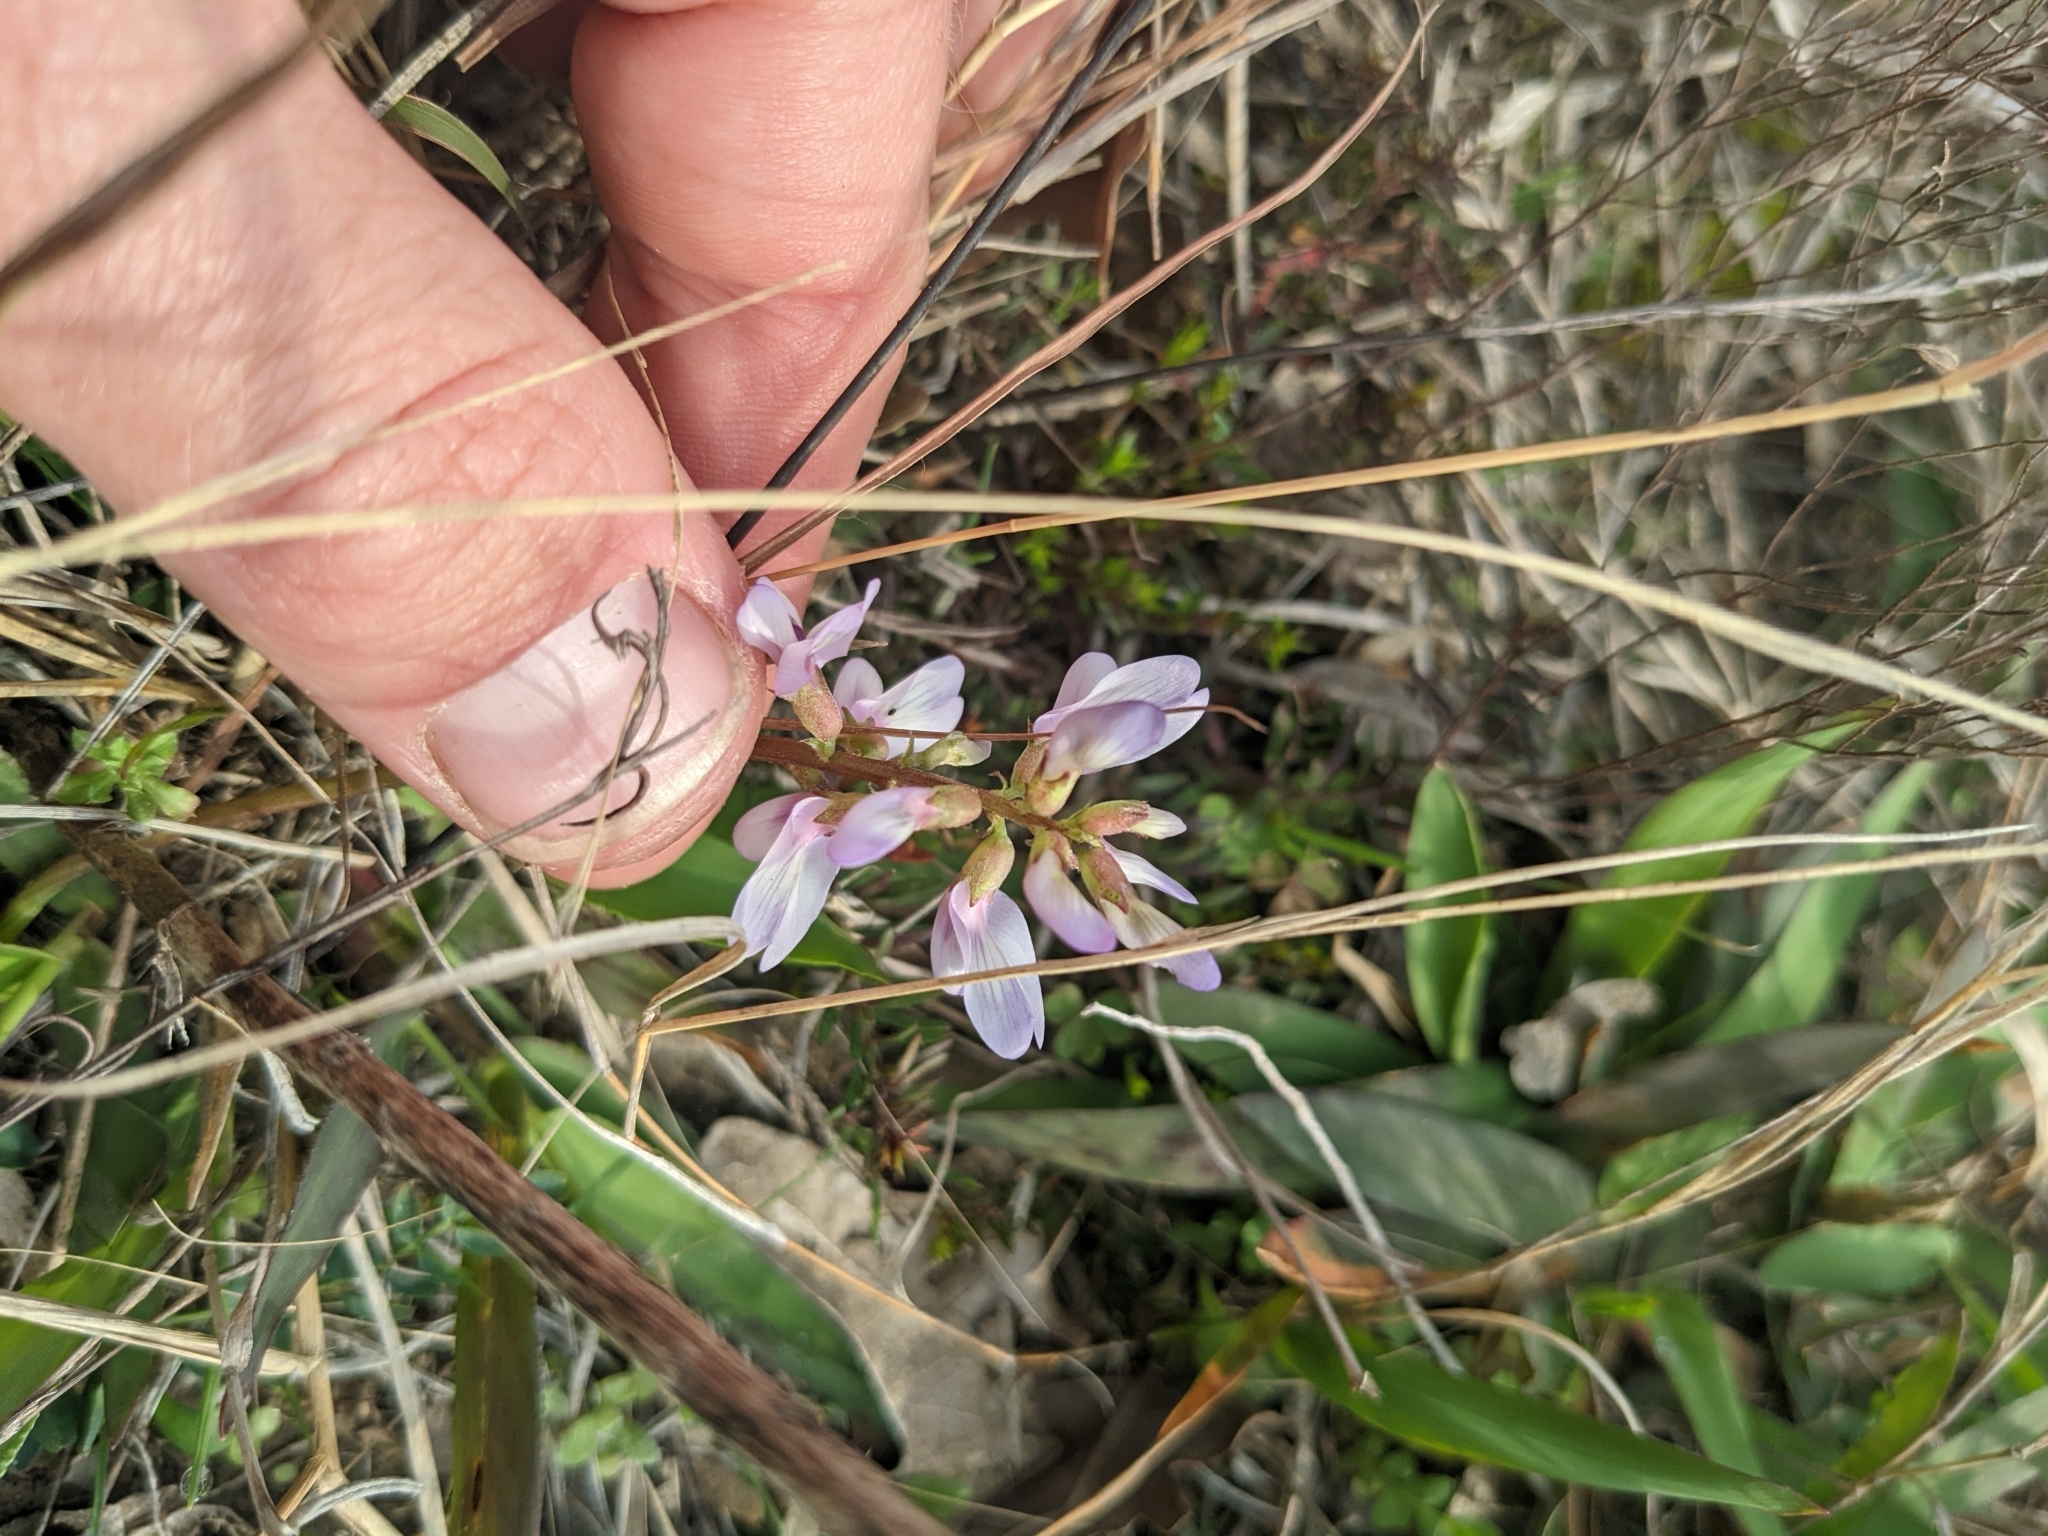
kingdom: Plantae
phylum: Tracheophyta
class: Magnoliopsida
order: Fabales
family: Fabaceae
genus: Astragalus
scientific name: Astragalus distortus
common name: Ozark milk-vetch
